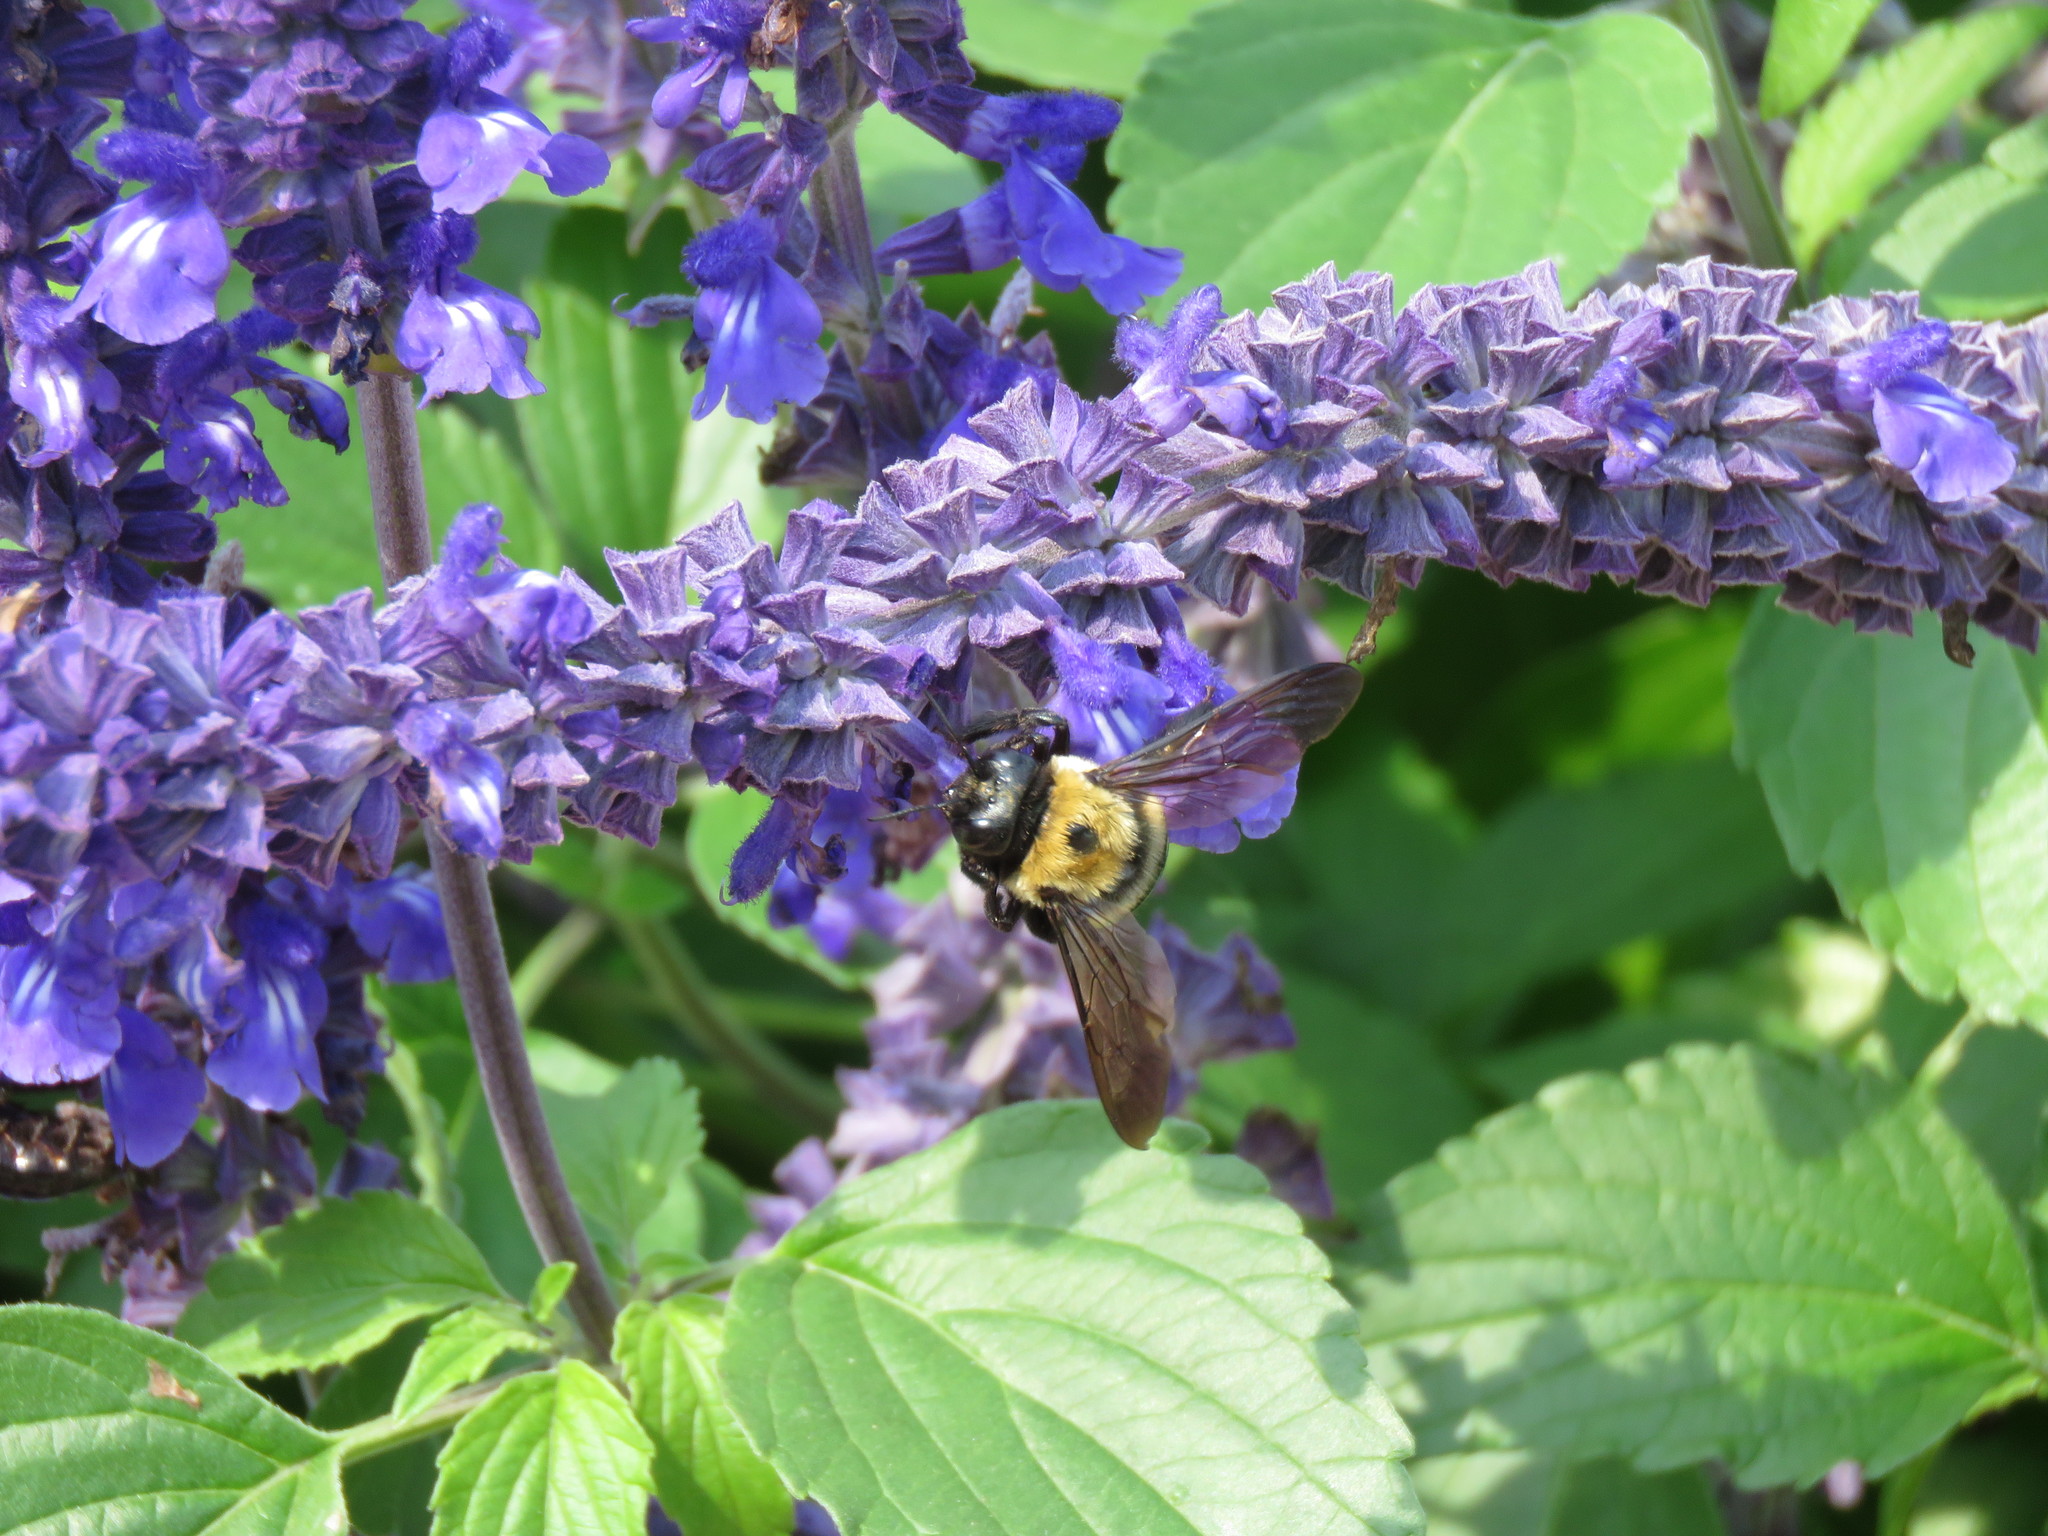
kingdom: Animalia
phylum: Arthropoda
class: Insecta
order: Hymenoptera
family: Apidae
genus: Xylocopa
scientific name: Xylocopa virginica
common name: Carpenter bee
